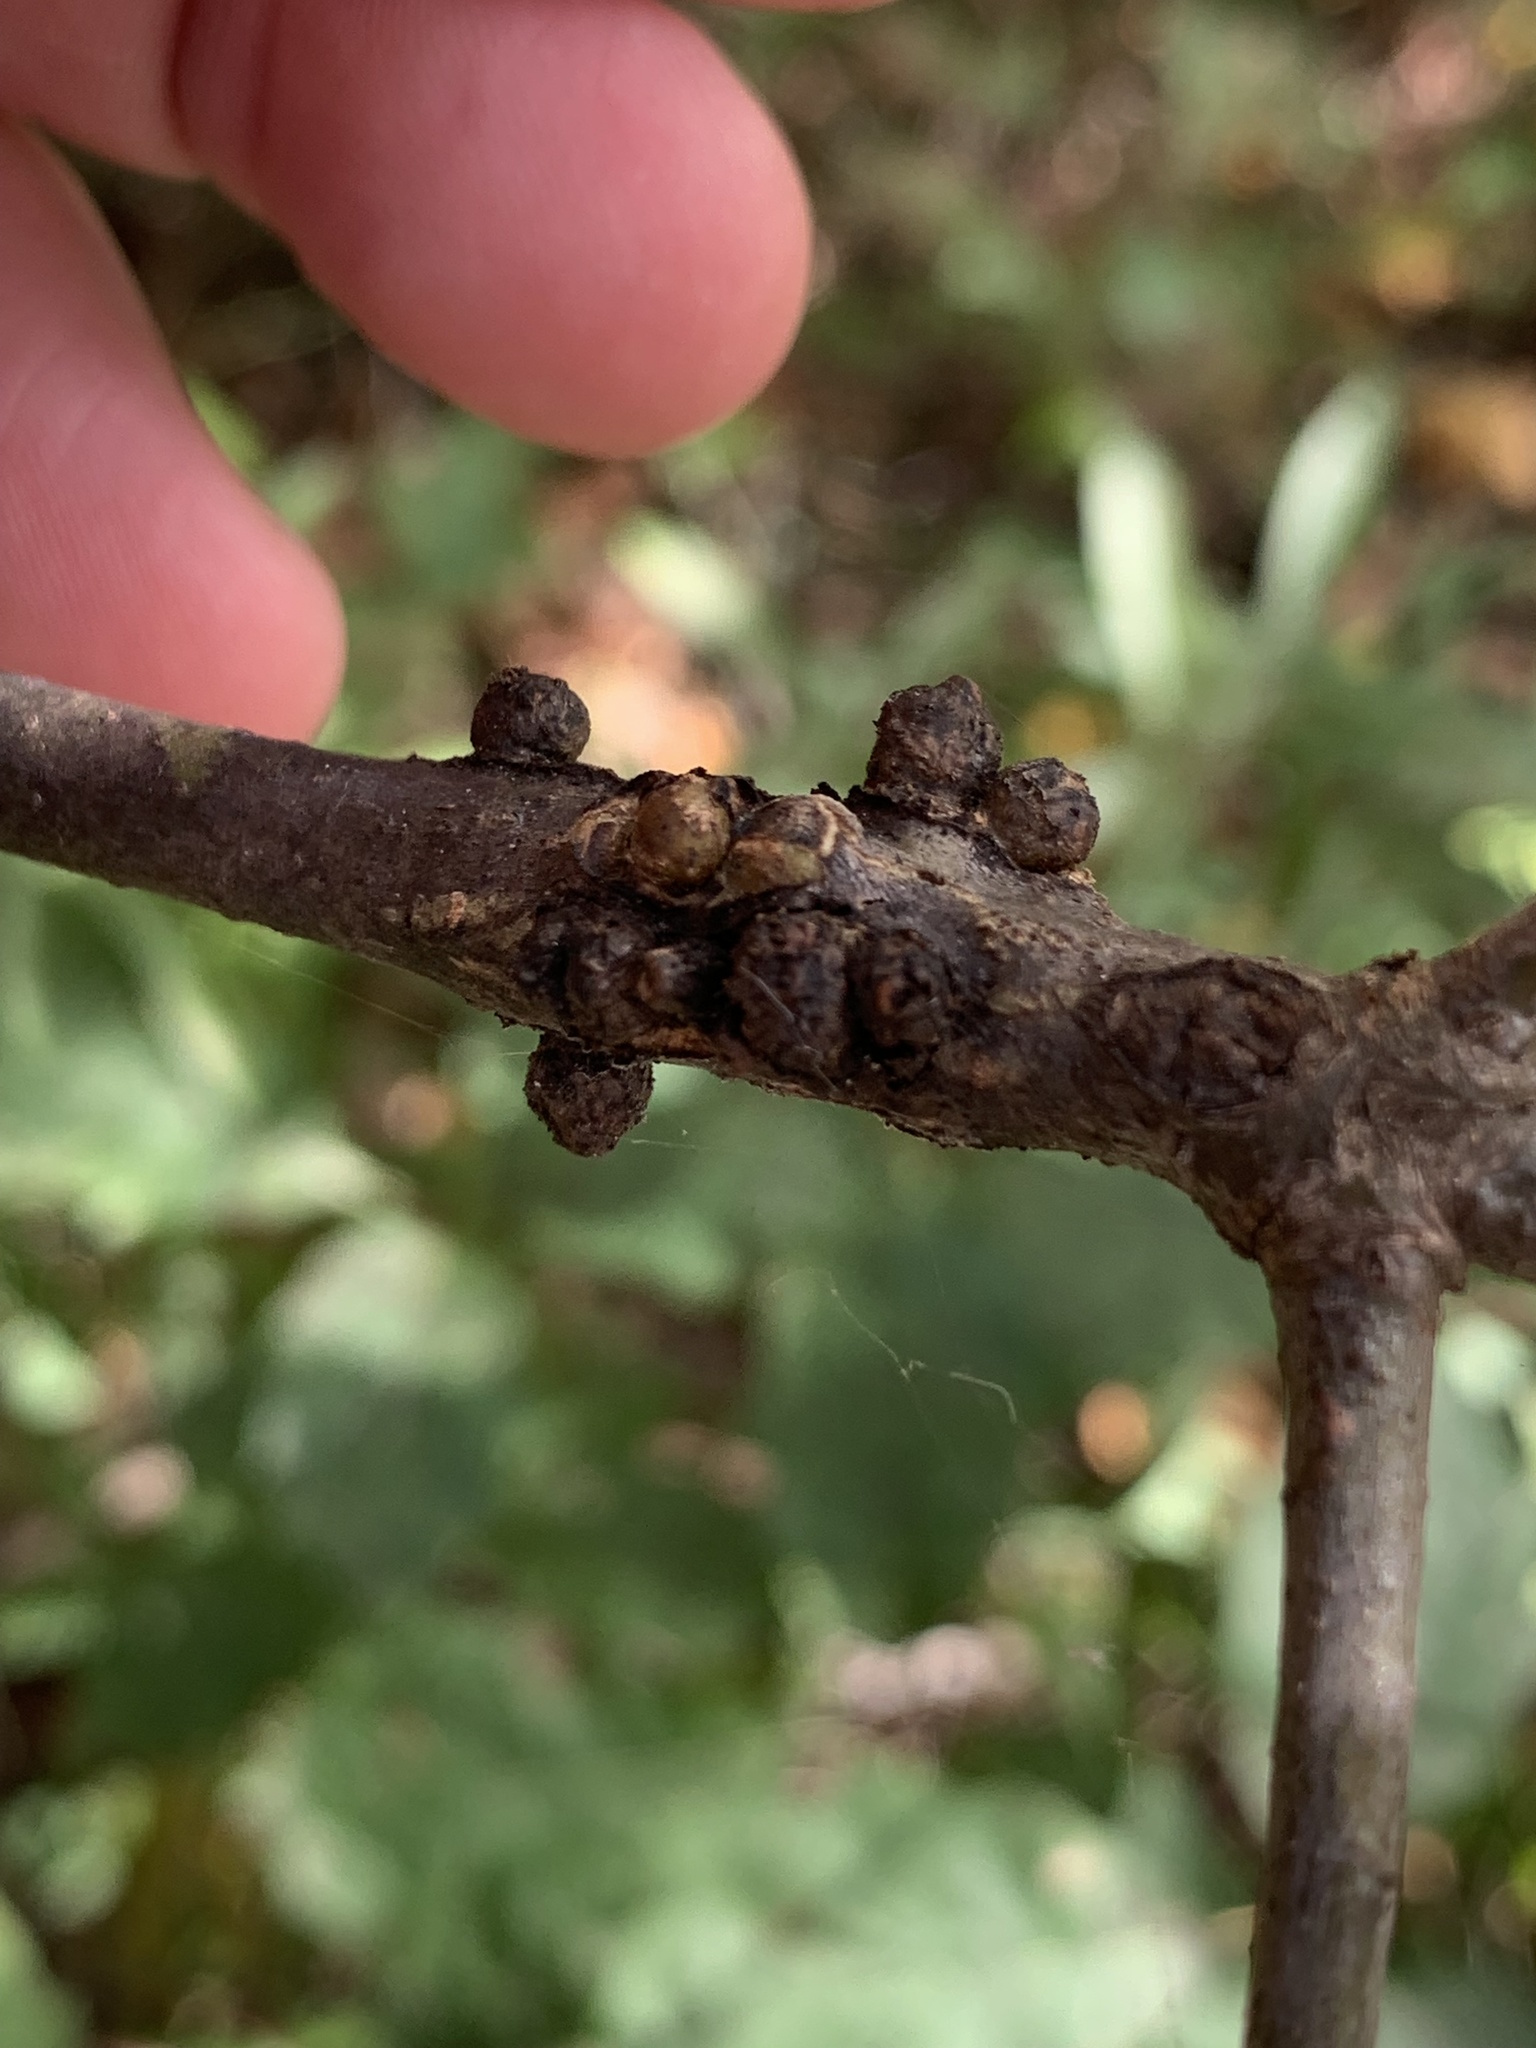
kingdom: Animalia
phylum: Arthropoda
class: Insecta
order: Hymenoptera
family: Cynipidae
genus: Synergus
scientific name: Synergus lignicola
